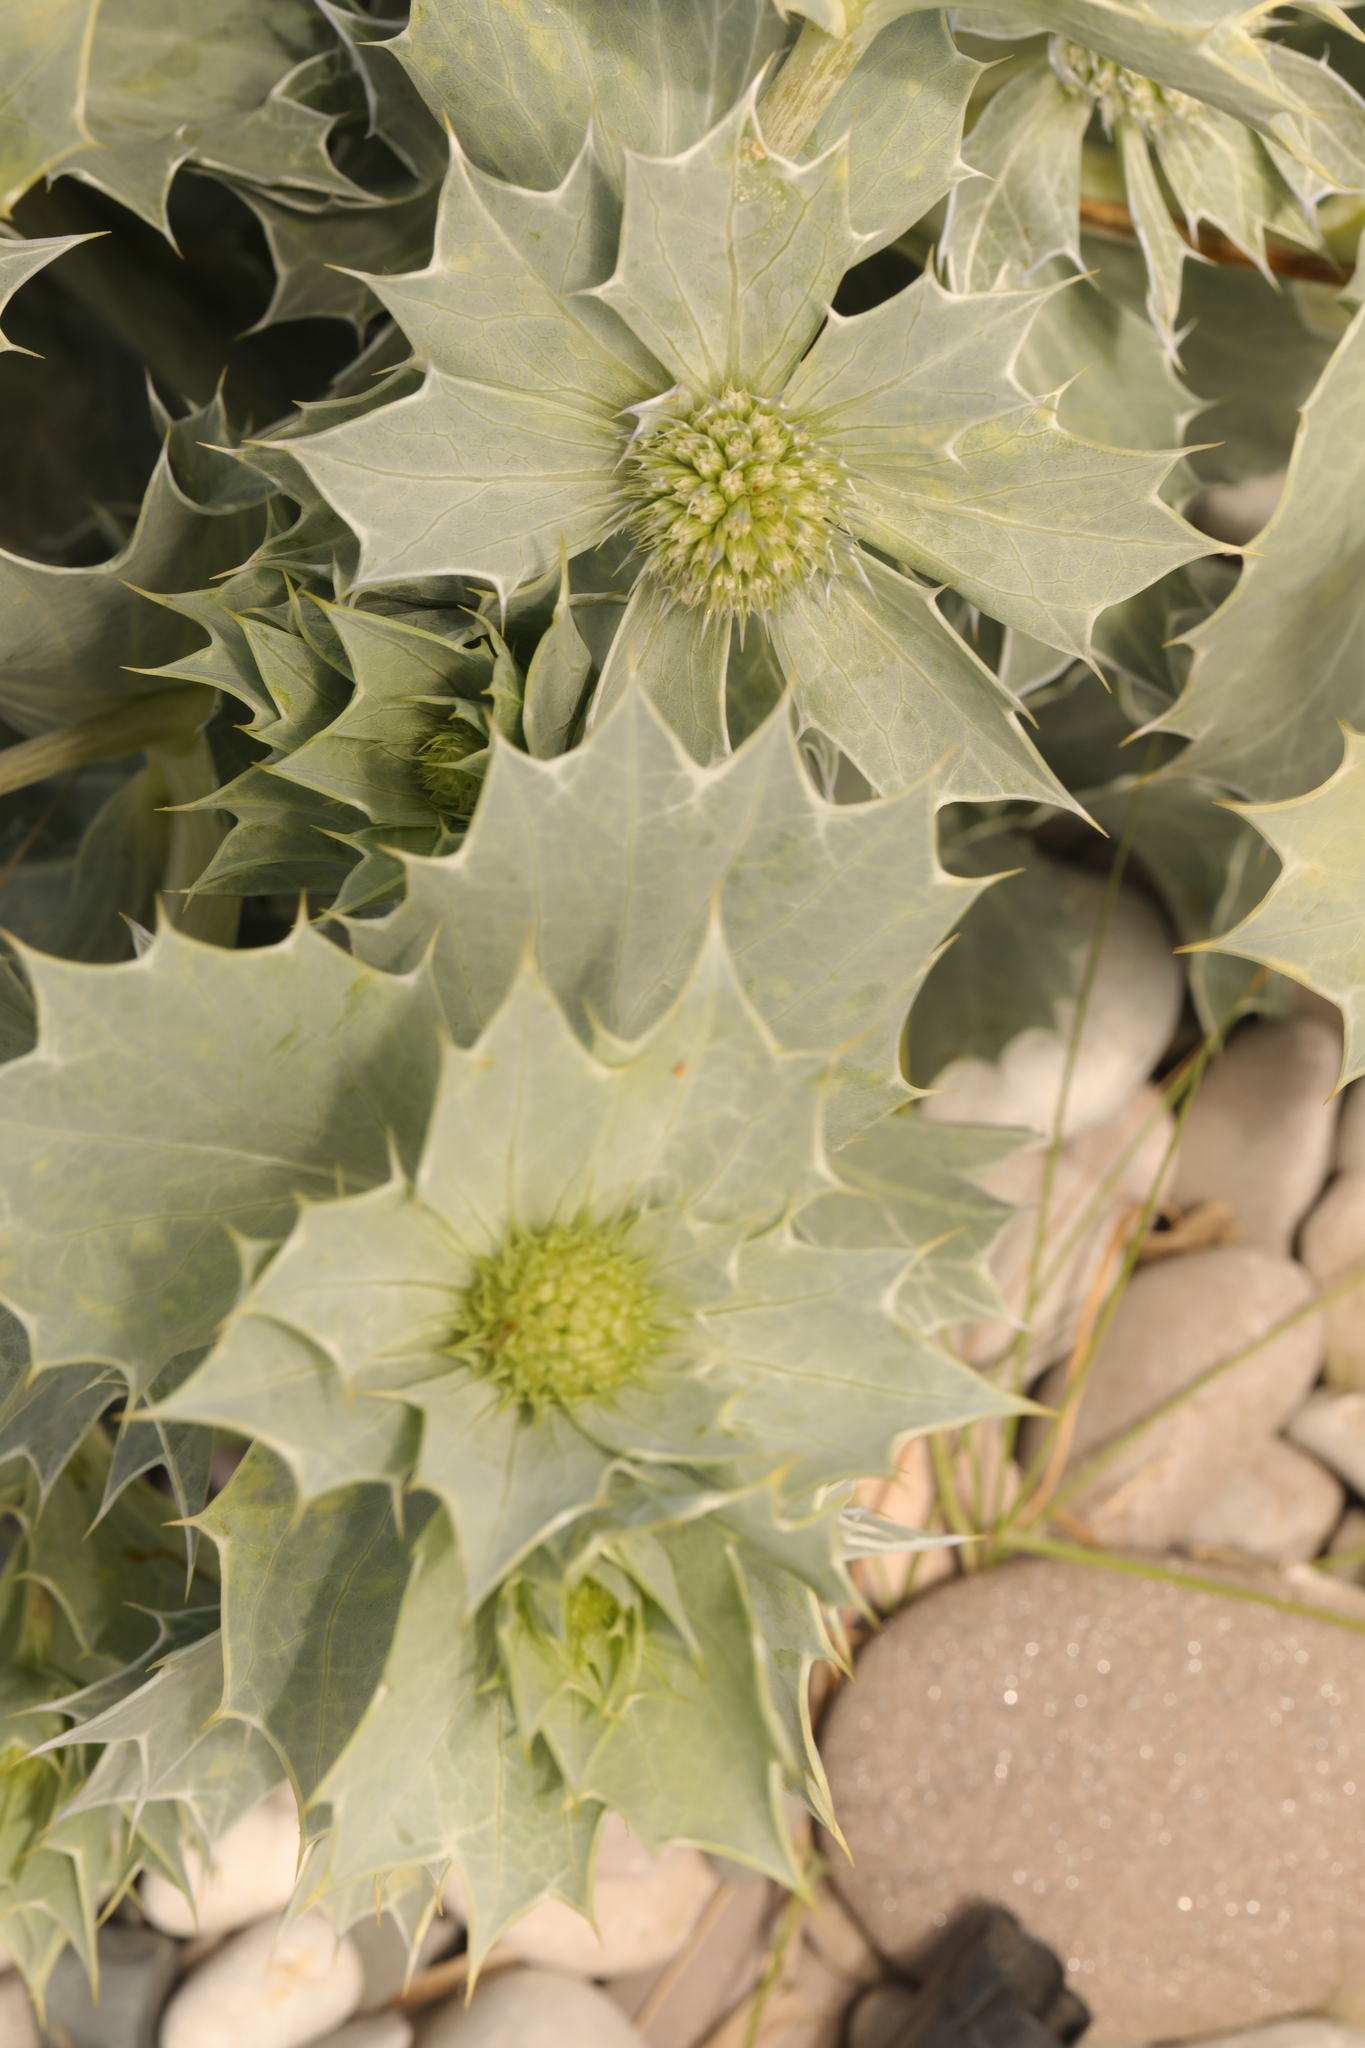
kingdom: Plantae
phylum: Tracheophyta
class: Magnoliopsida
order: Apiales
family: Apiaceae
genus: Eryngium
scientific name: Eryngium maritimum
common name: Sea-holly
